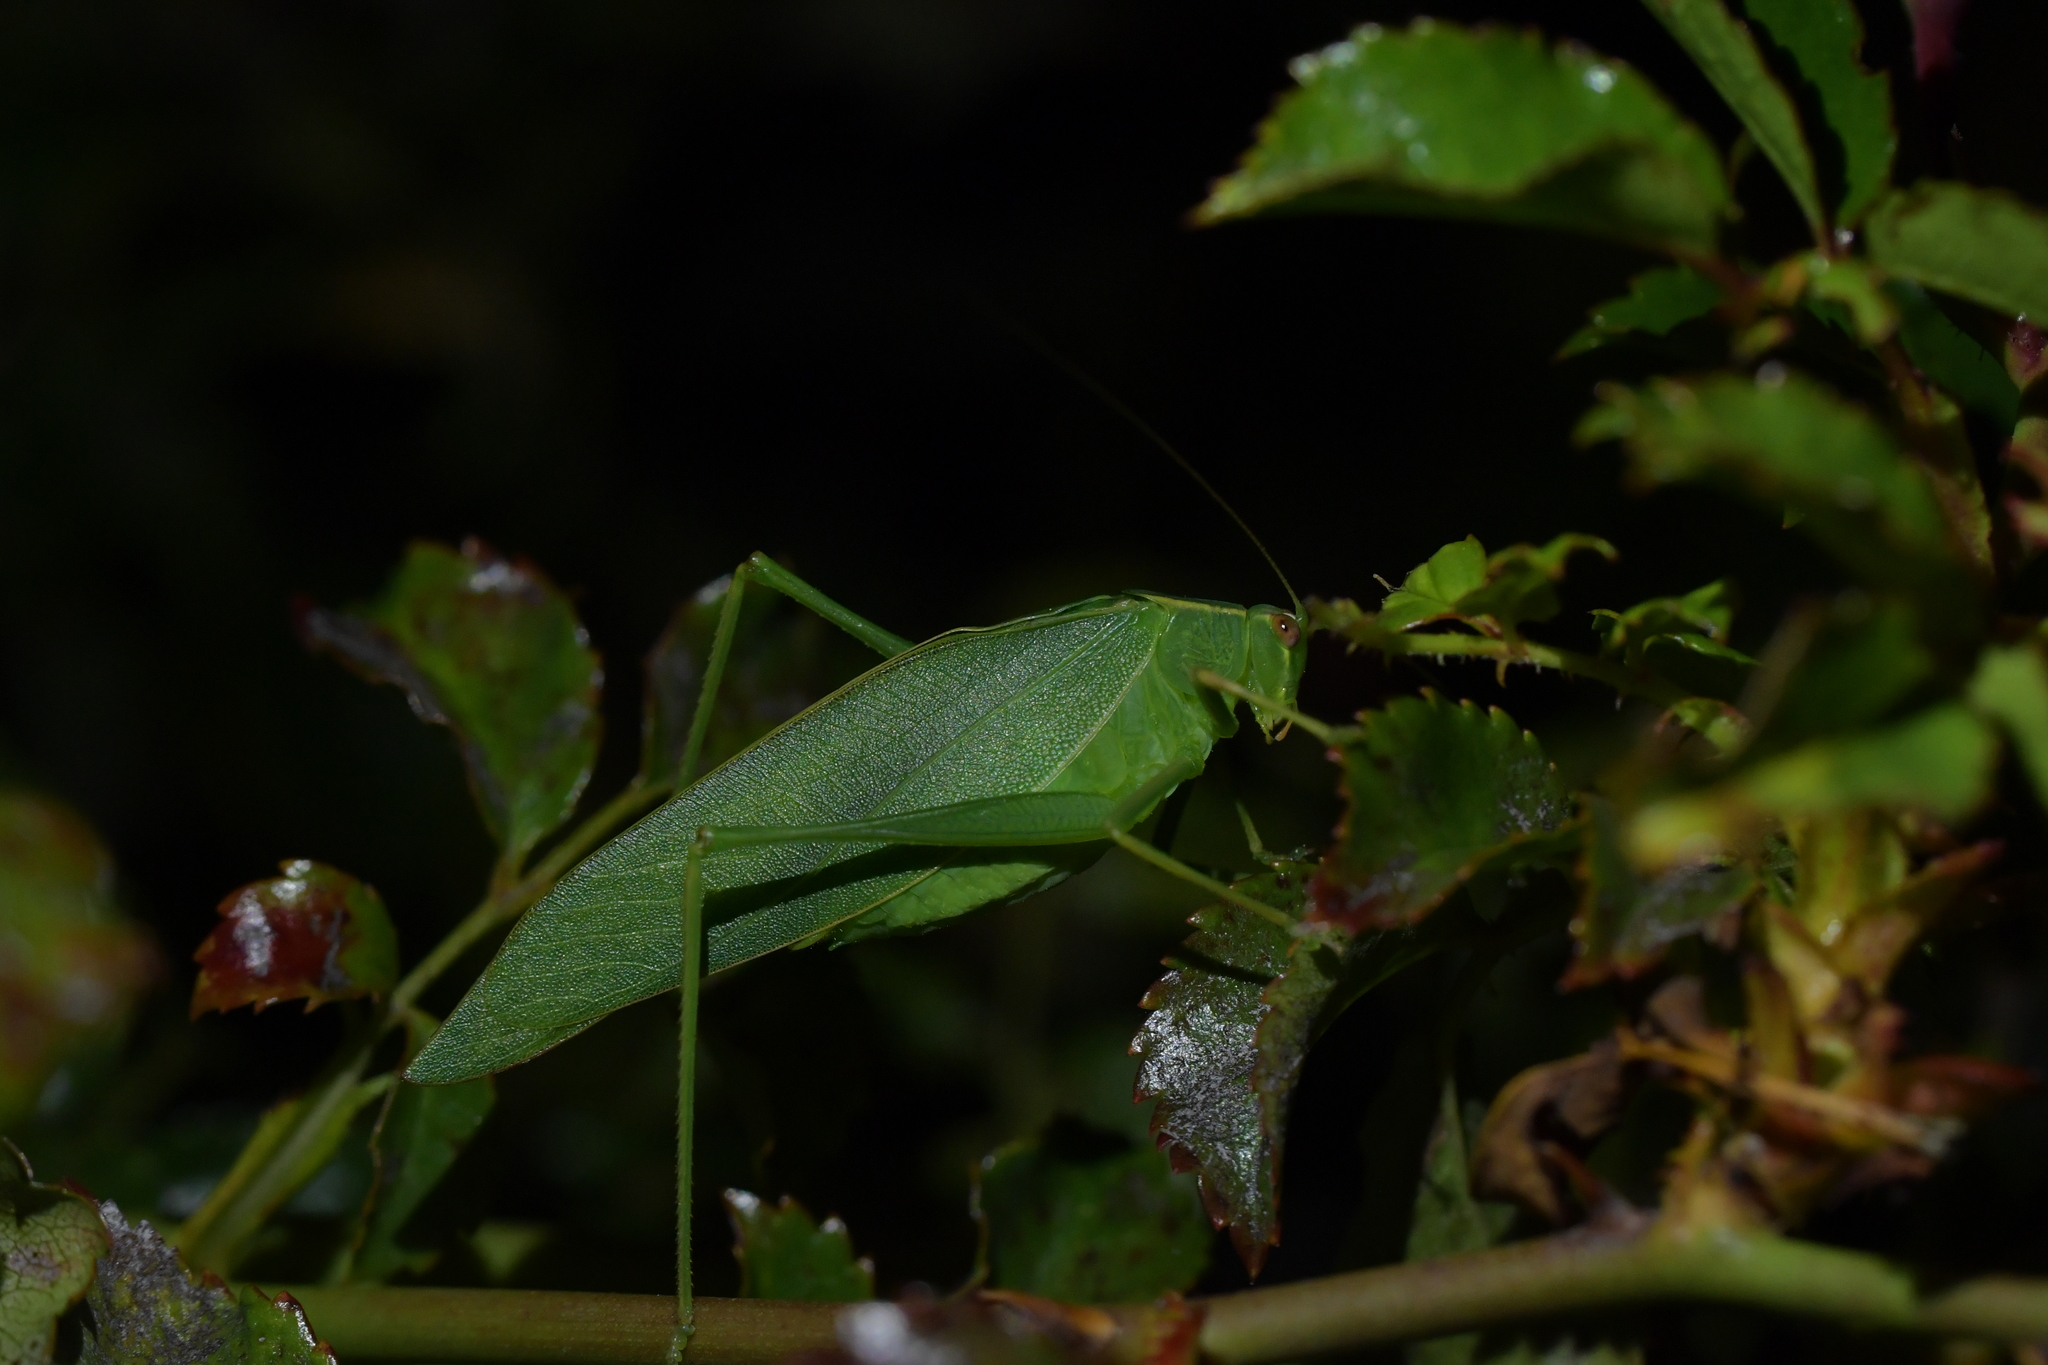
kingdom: Animalia
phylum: Arthropoda
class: Insecta
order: Orthoptera
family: Tettigoniidae
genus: Caedicia
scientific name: Caedicia simplex
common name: Common garden katydid
